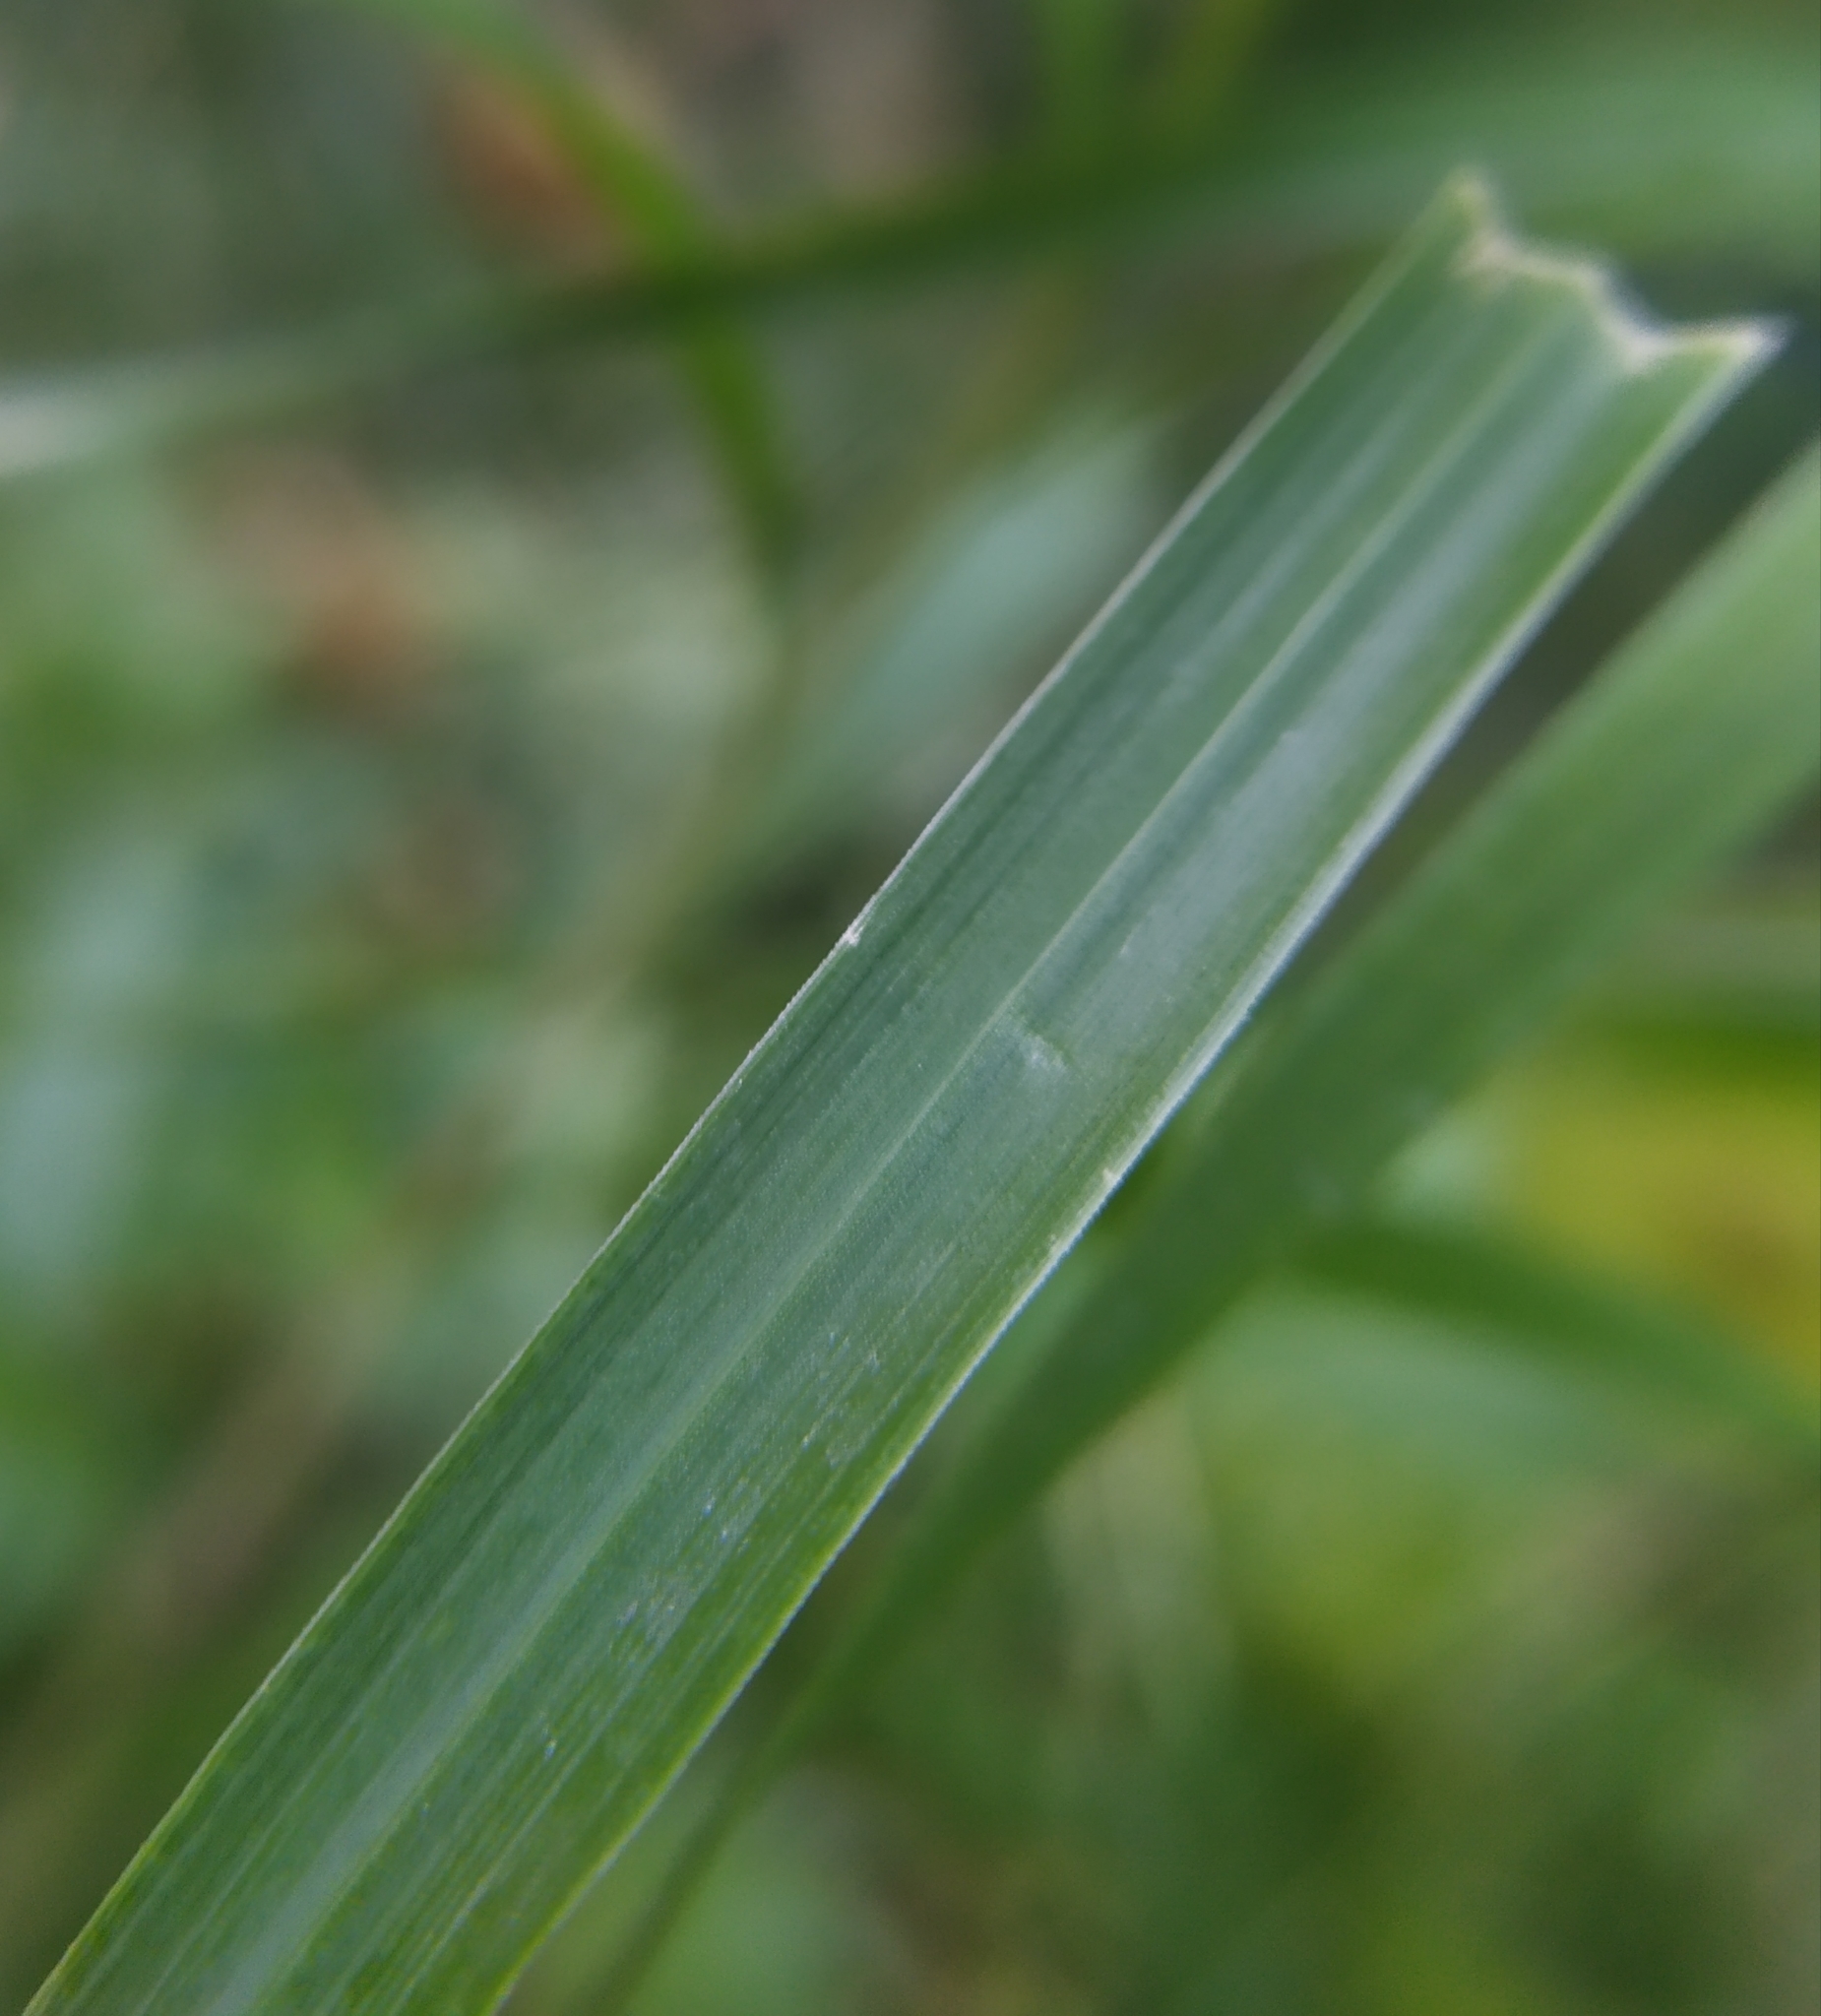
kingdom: Plantae
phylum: Tracheophyta
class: Liliopsida
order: Poales
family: Poaceae
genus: Calamagrostis
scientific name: Calamagrostis epigejos
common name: Wood small-reed
